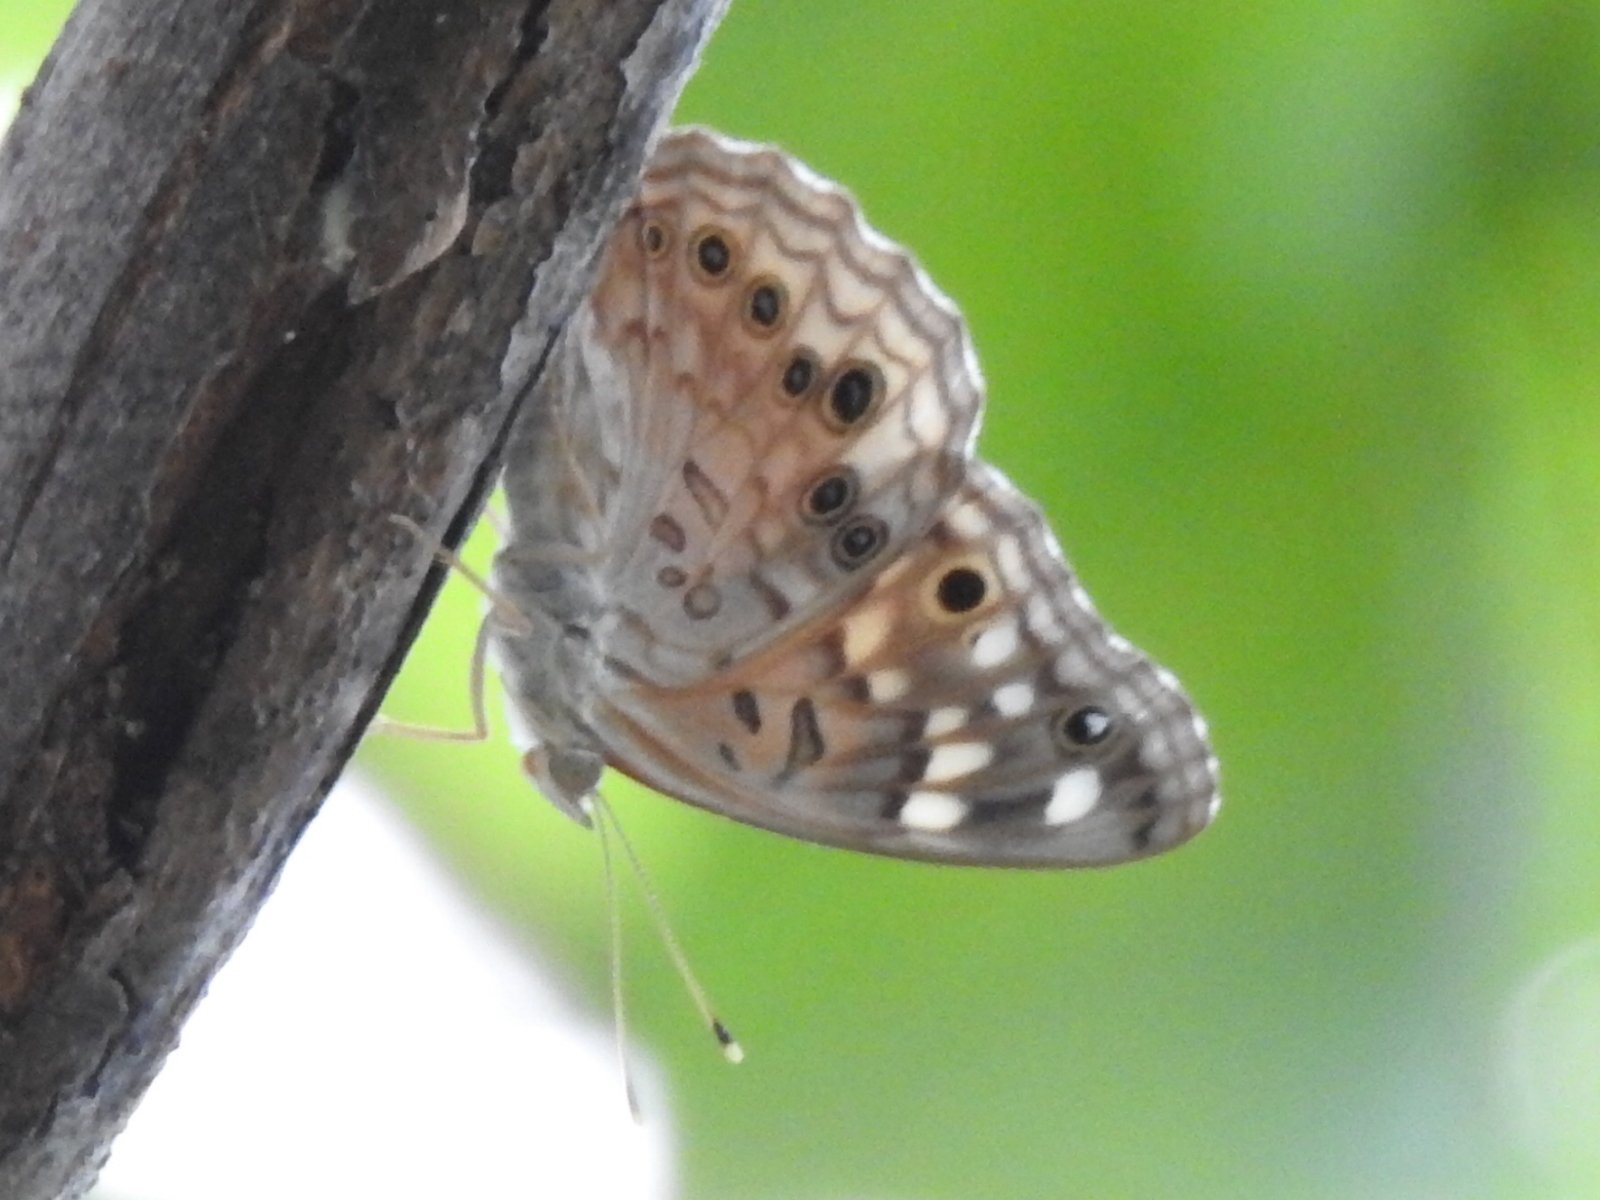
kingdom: Animalia
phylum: Arthropoda
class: Insecta
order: Lepidoptera
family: Nymphalidae
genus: Asterocampa
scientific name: Asterocampa celtis
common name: Hackberry emperor
